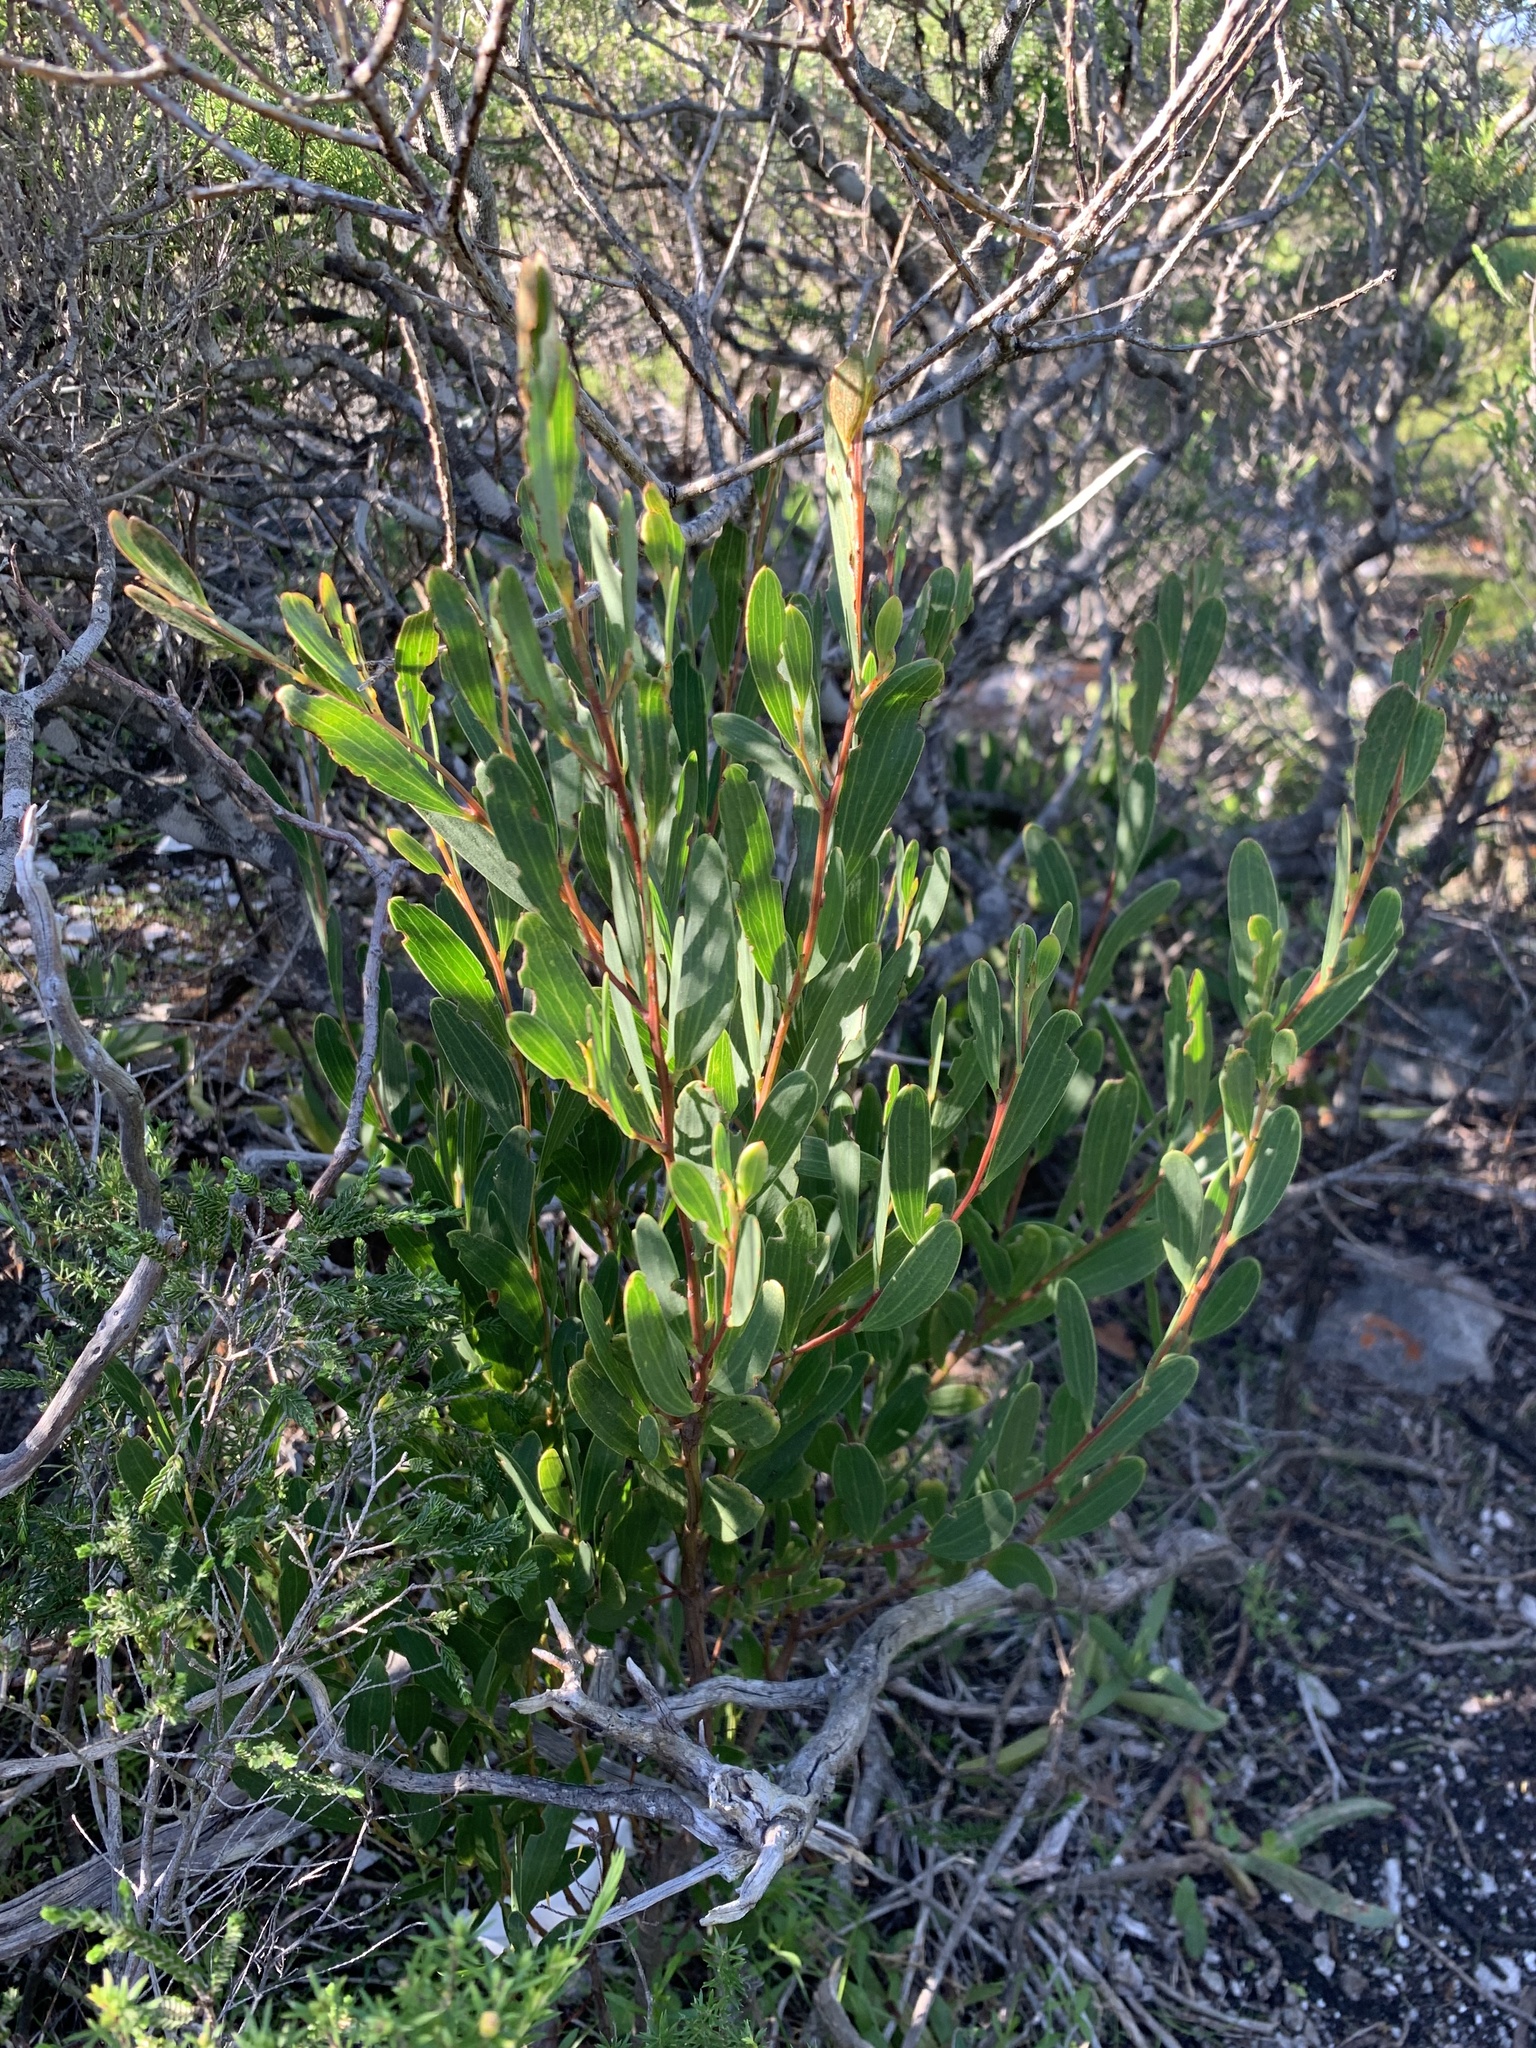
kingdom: Plantae
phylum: Tracheophyta
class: Magnoliopsida
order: Fabales
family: Fabaceae
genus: Acacia
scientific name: Acacia cyclops
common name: Coastal wattle
